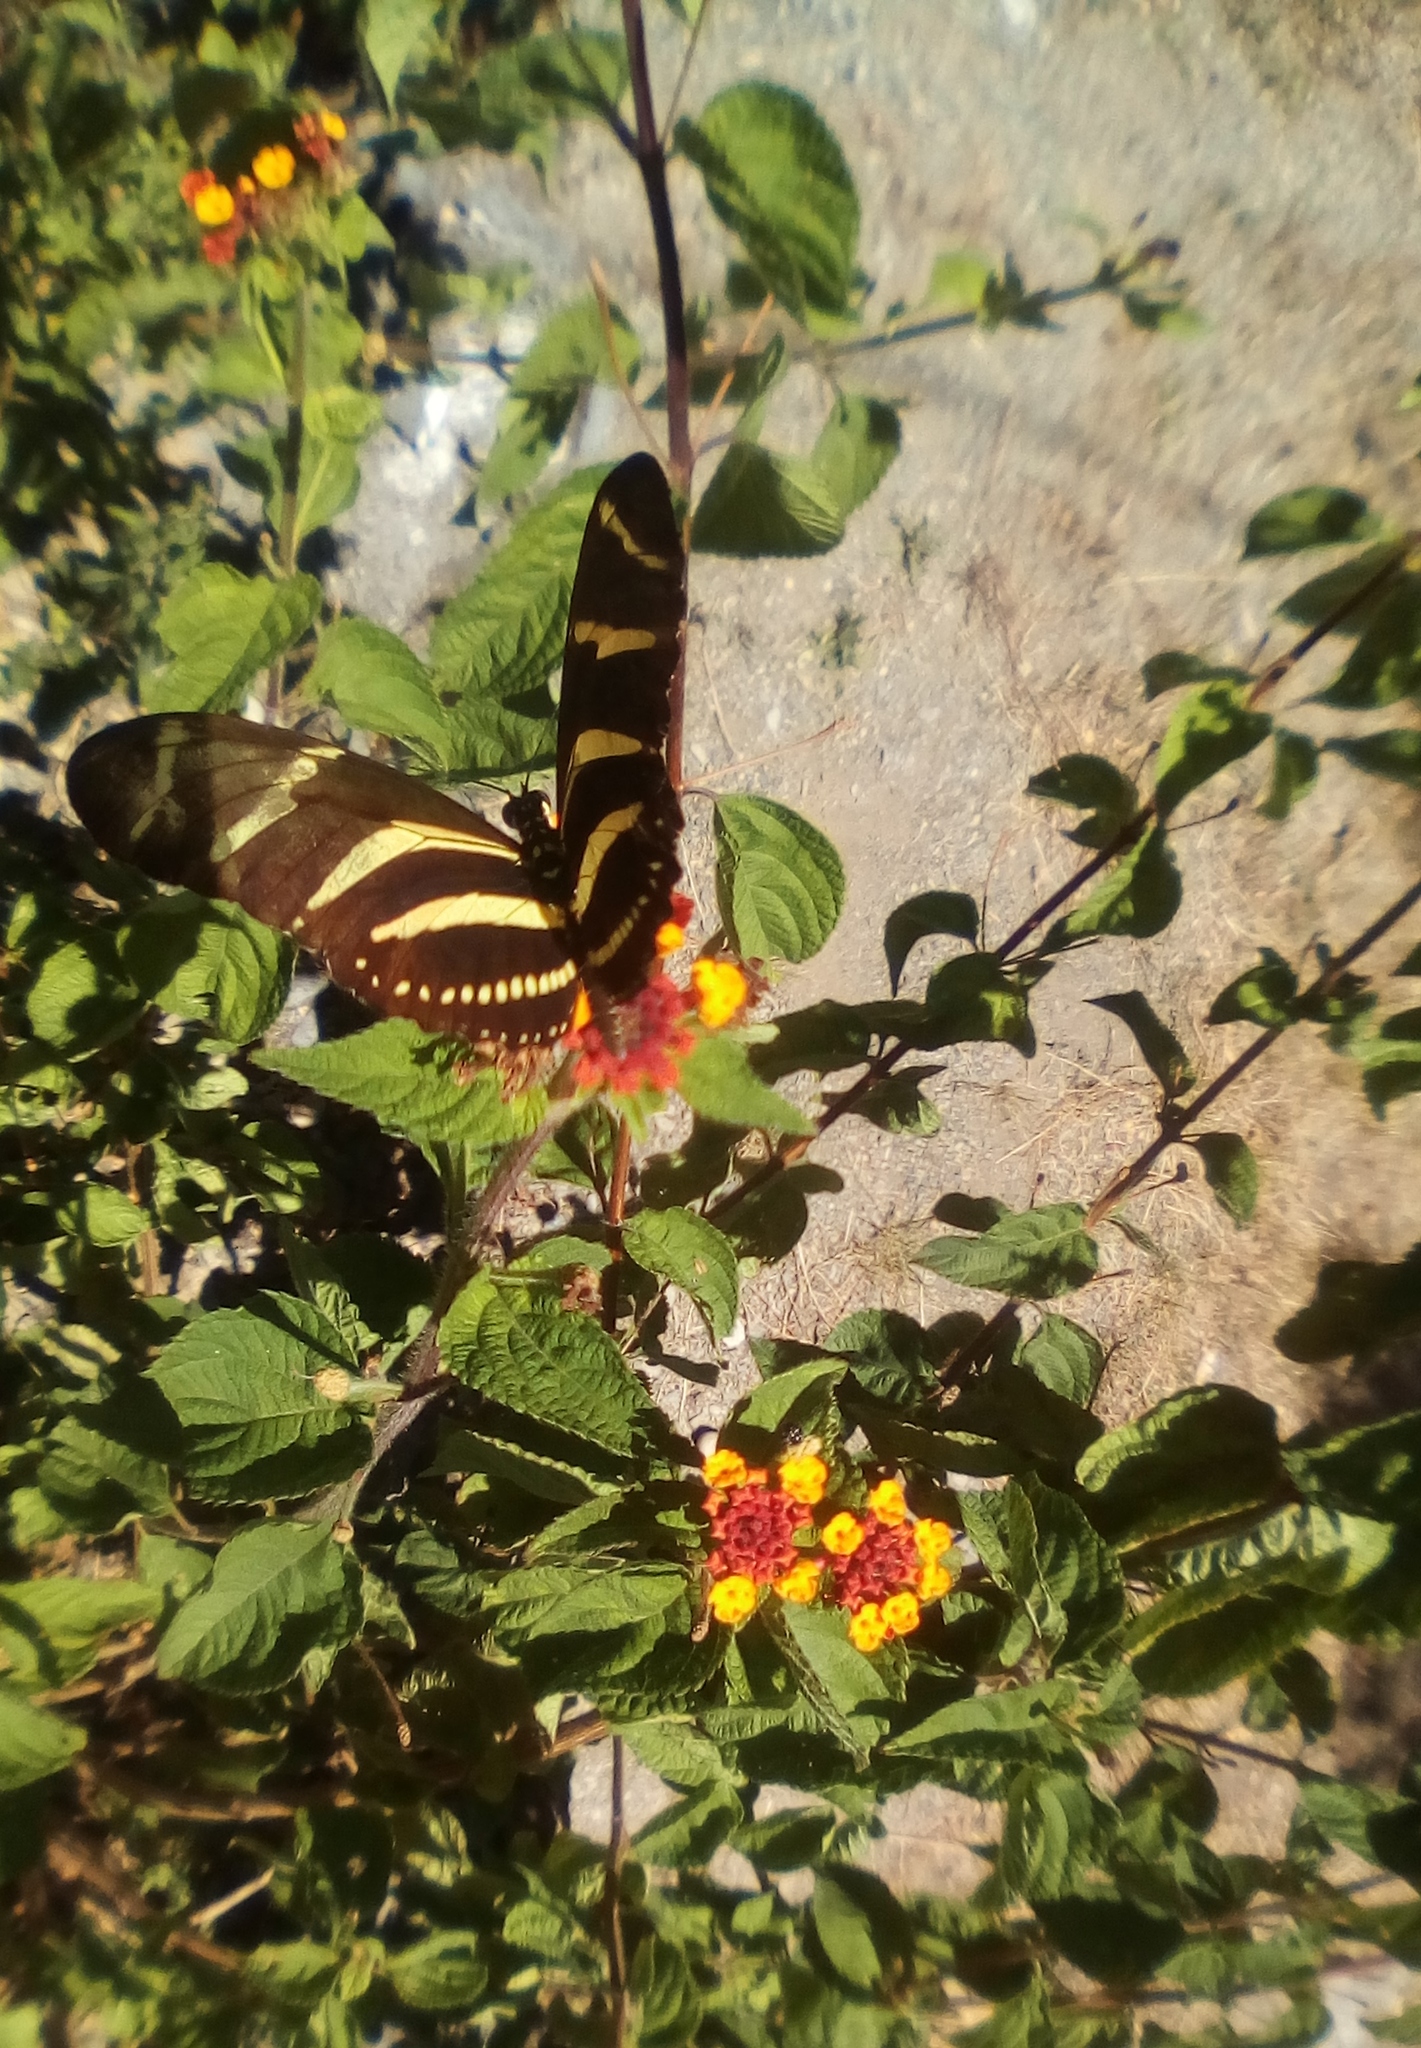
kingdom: Animalia
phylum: Arthropoda
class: Insecta
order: Lepidoptera
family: Nymphalidae
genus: Heliconius
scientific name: Heliconius charithonia
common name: Zebra long wing
